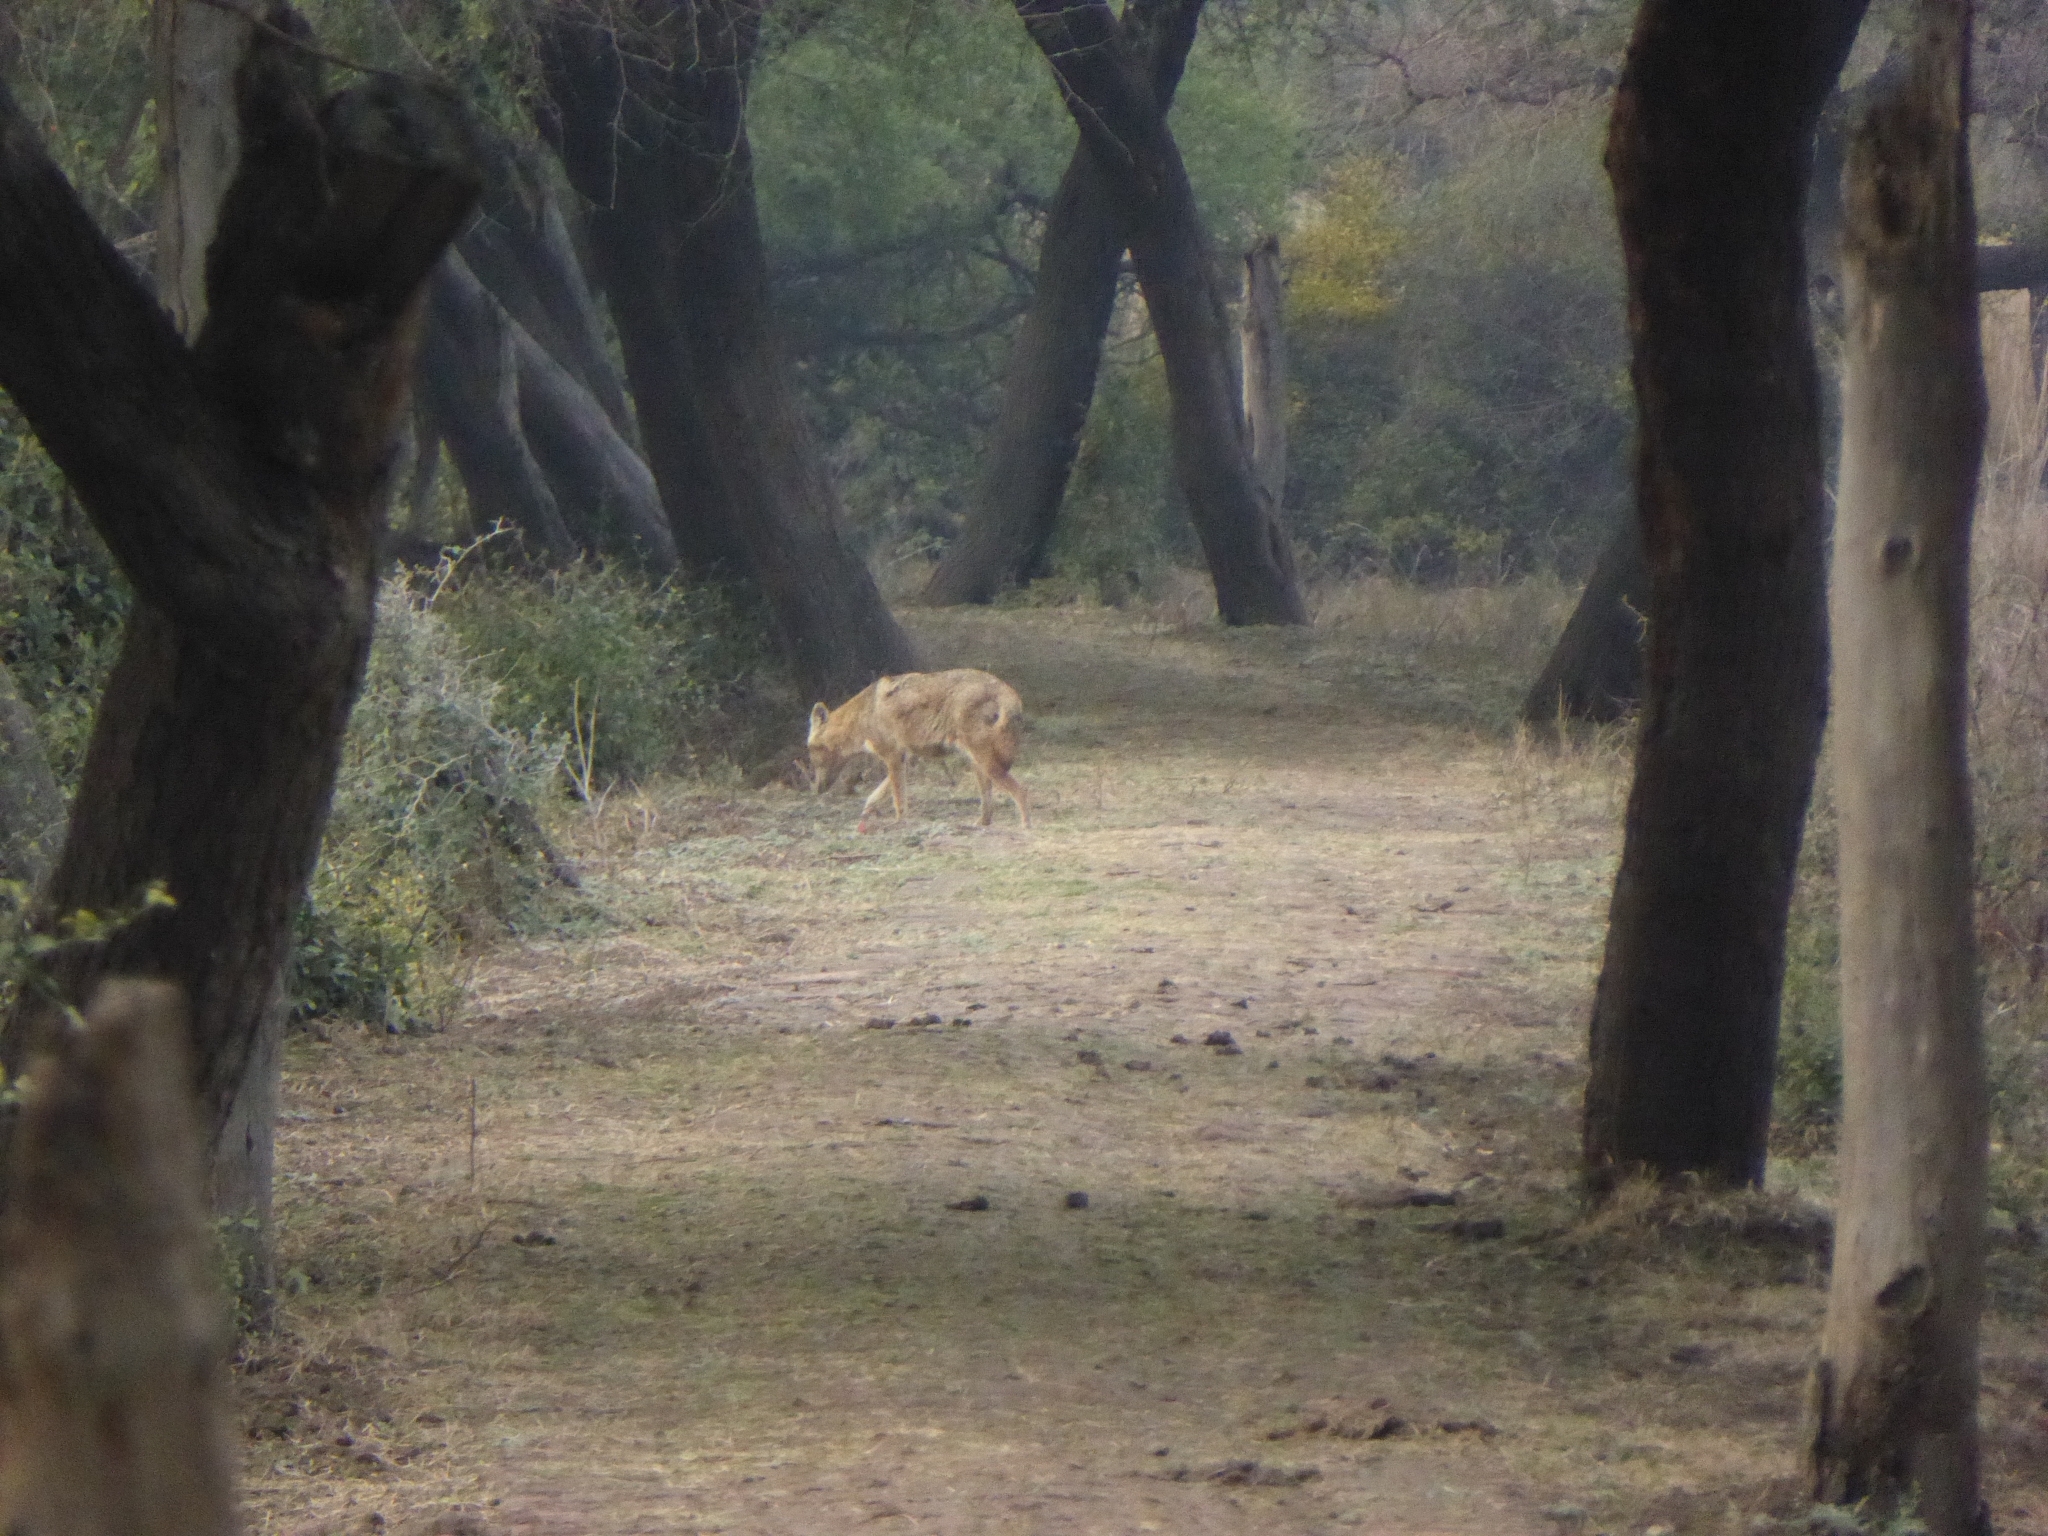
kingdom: Animalia
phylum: Chordata
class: Mammalia
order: Carnivora
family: Canidae
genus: Canis
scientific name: Canis aureus
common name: Golden jackal
